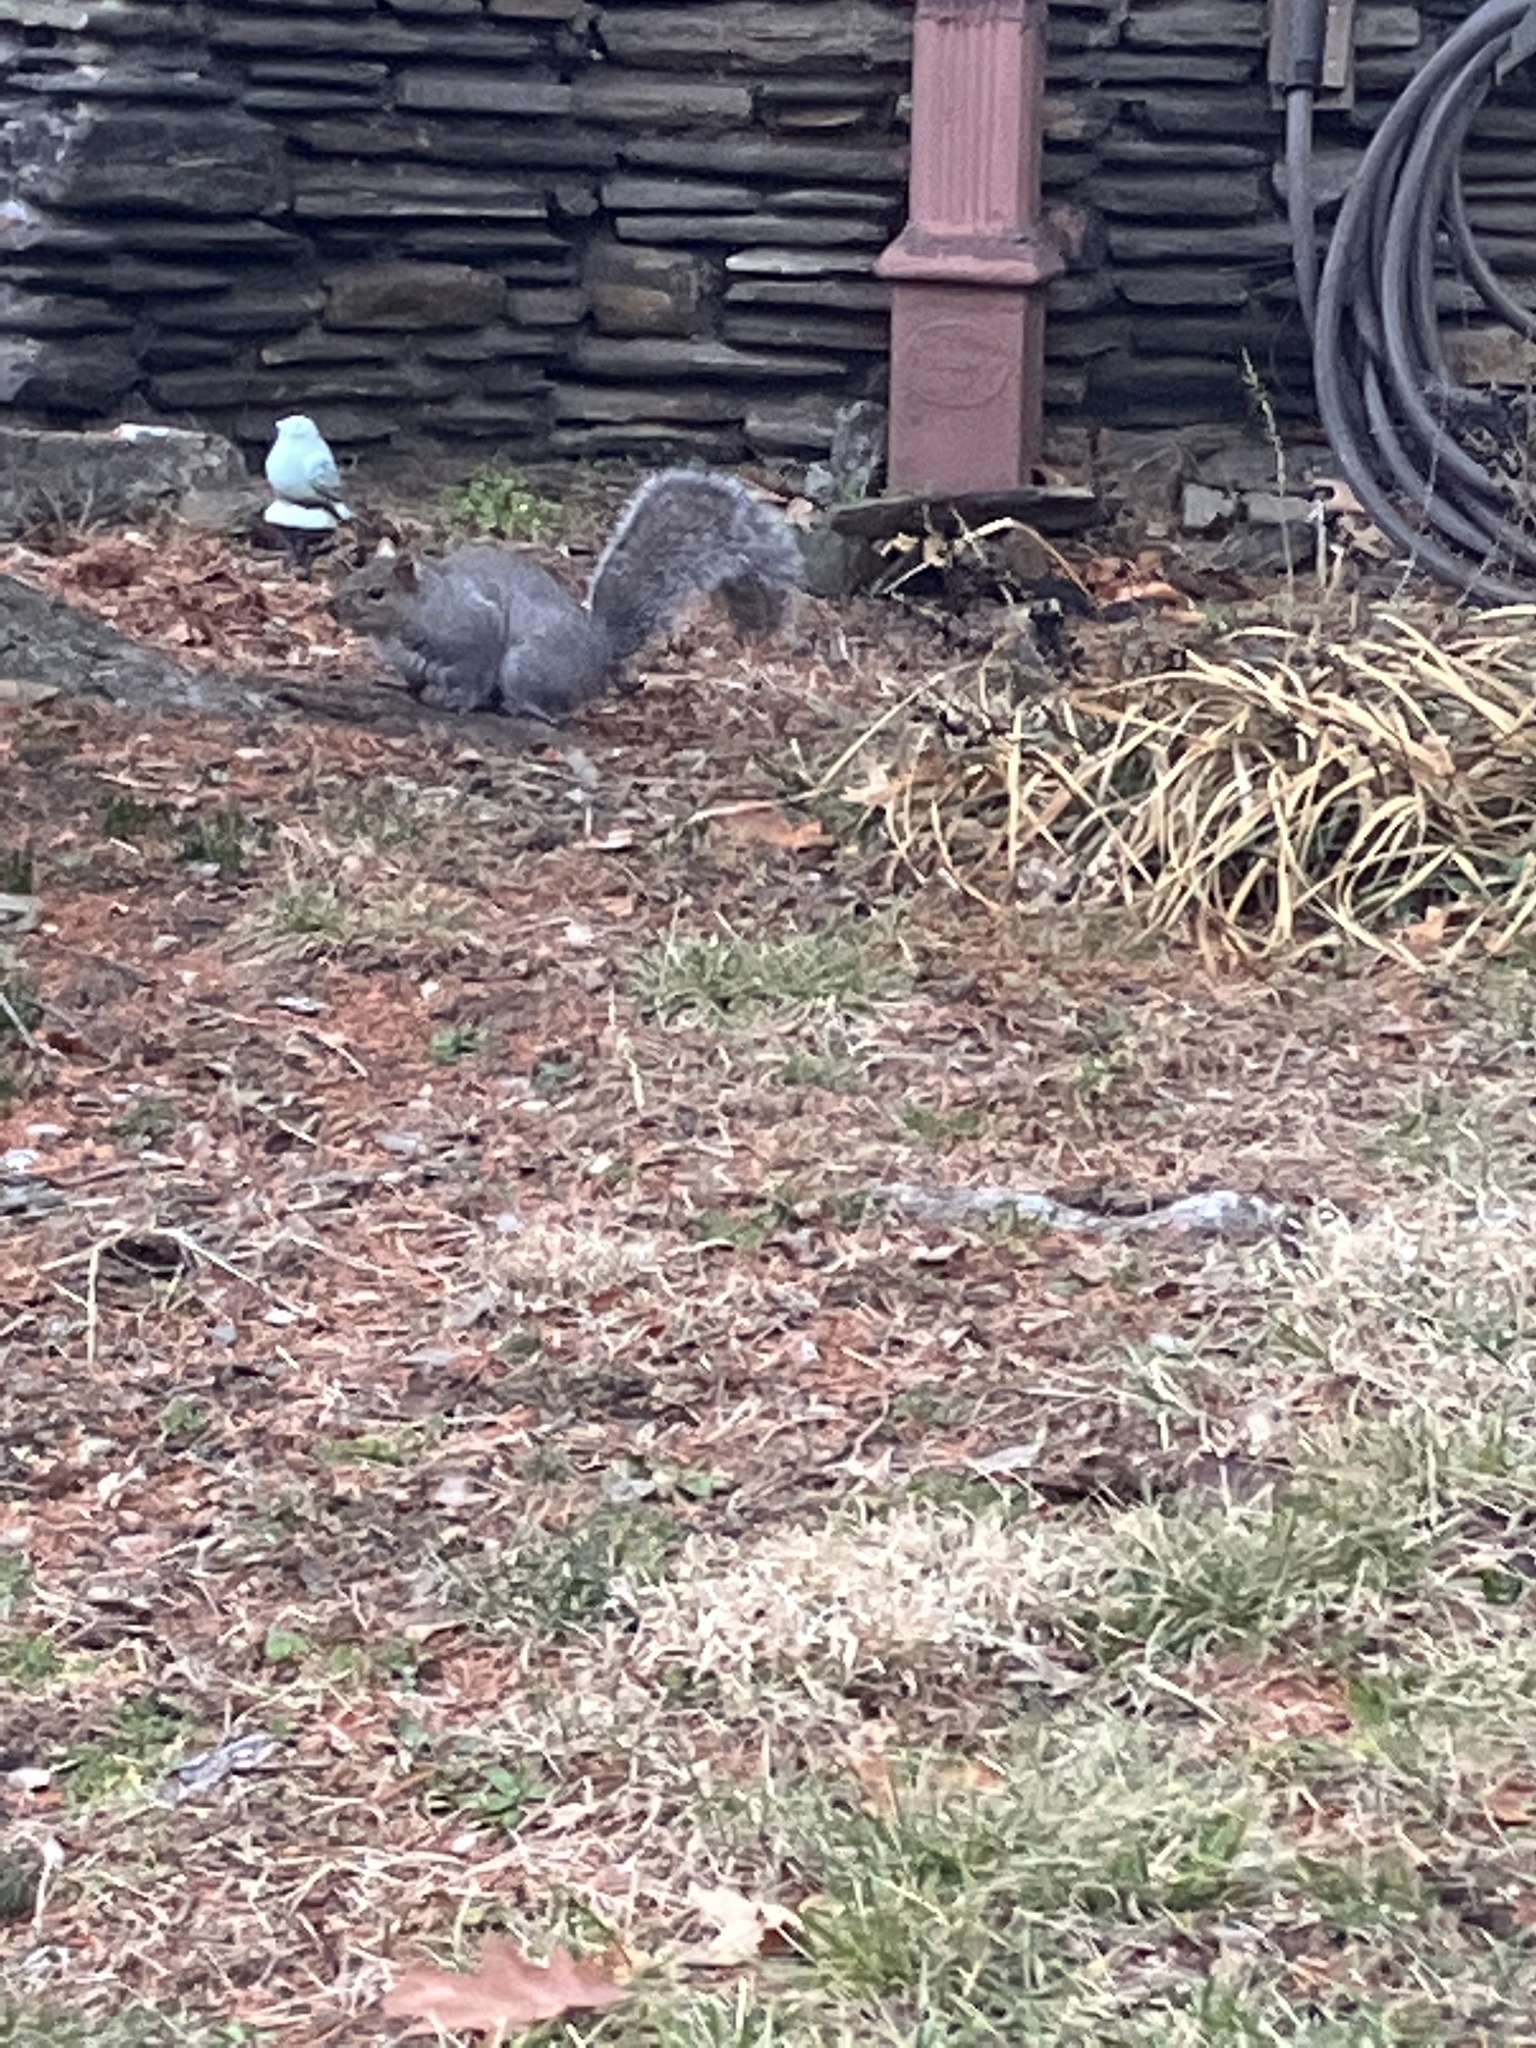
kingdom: Animalia
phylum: Chordata
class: Mammalia
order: Rodentia
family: Sciuridae
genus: Sciurus
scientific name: Sciurus carolinensis
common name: Eastern gray squirrel
